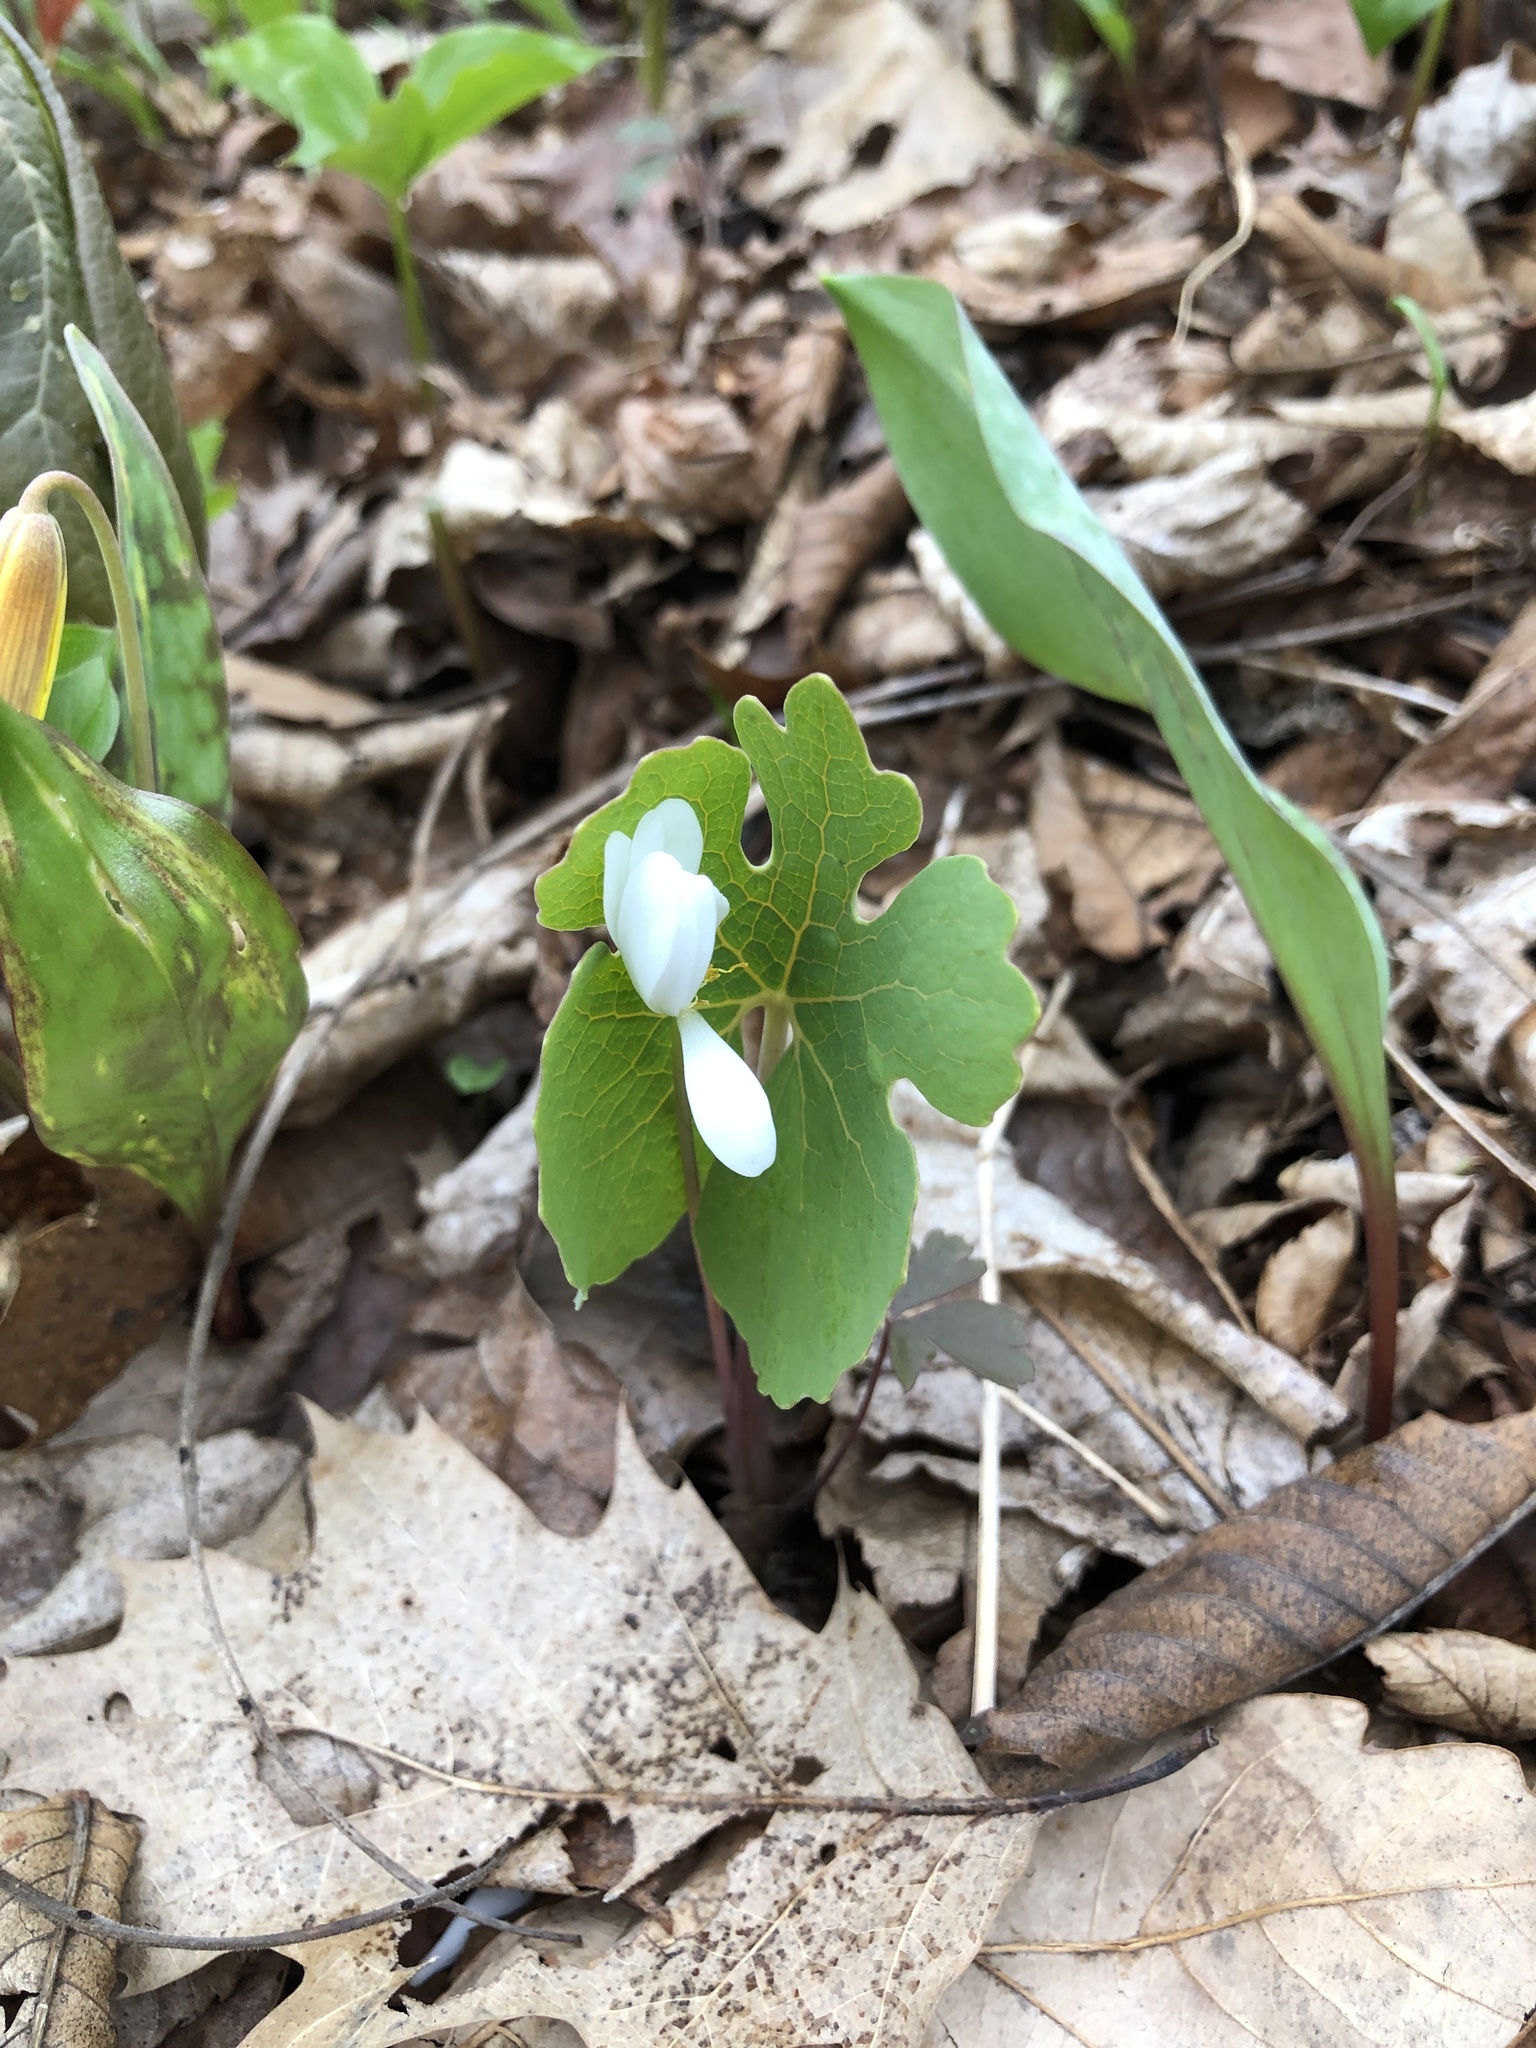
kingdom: Plantae
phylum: Tracheophyta
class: Magnoliopsida
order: Ranunculales
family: Papaveraceae
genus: Sanguinaria
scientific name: Sanguinaria canadensis
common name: Bloodroot
